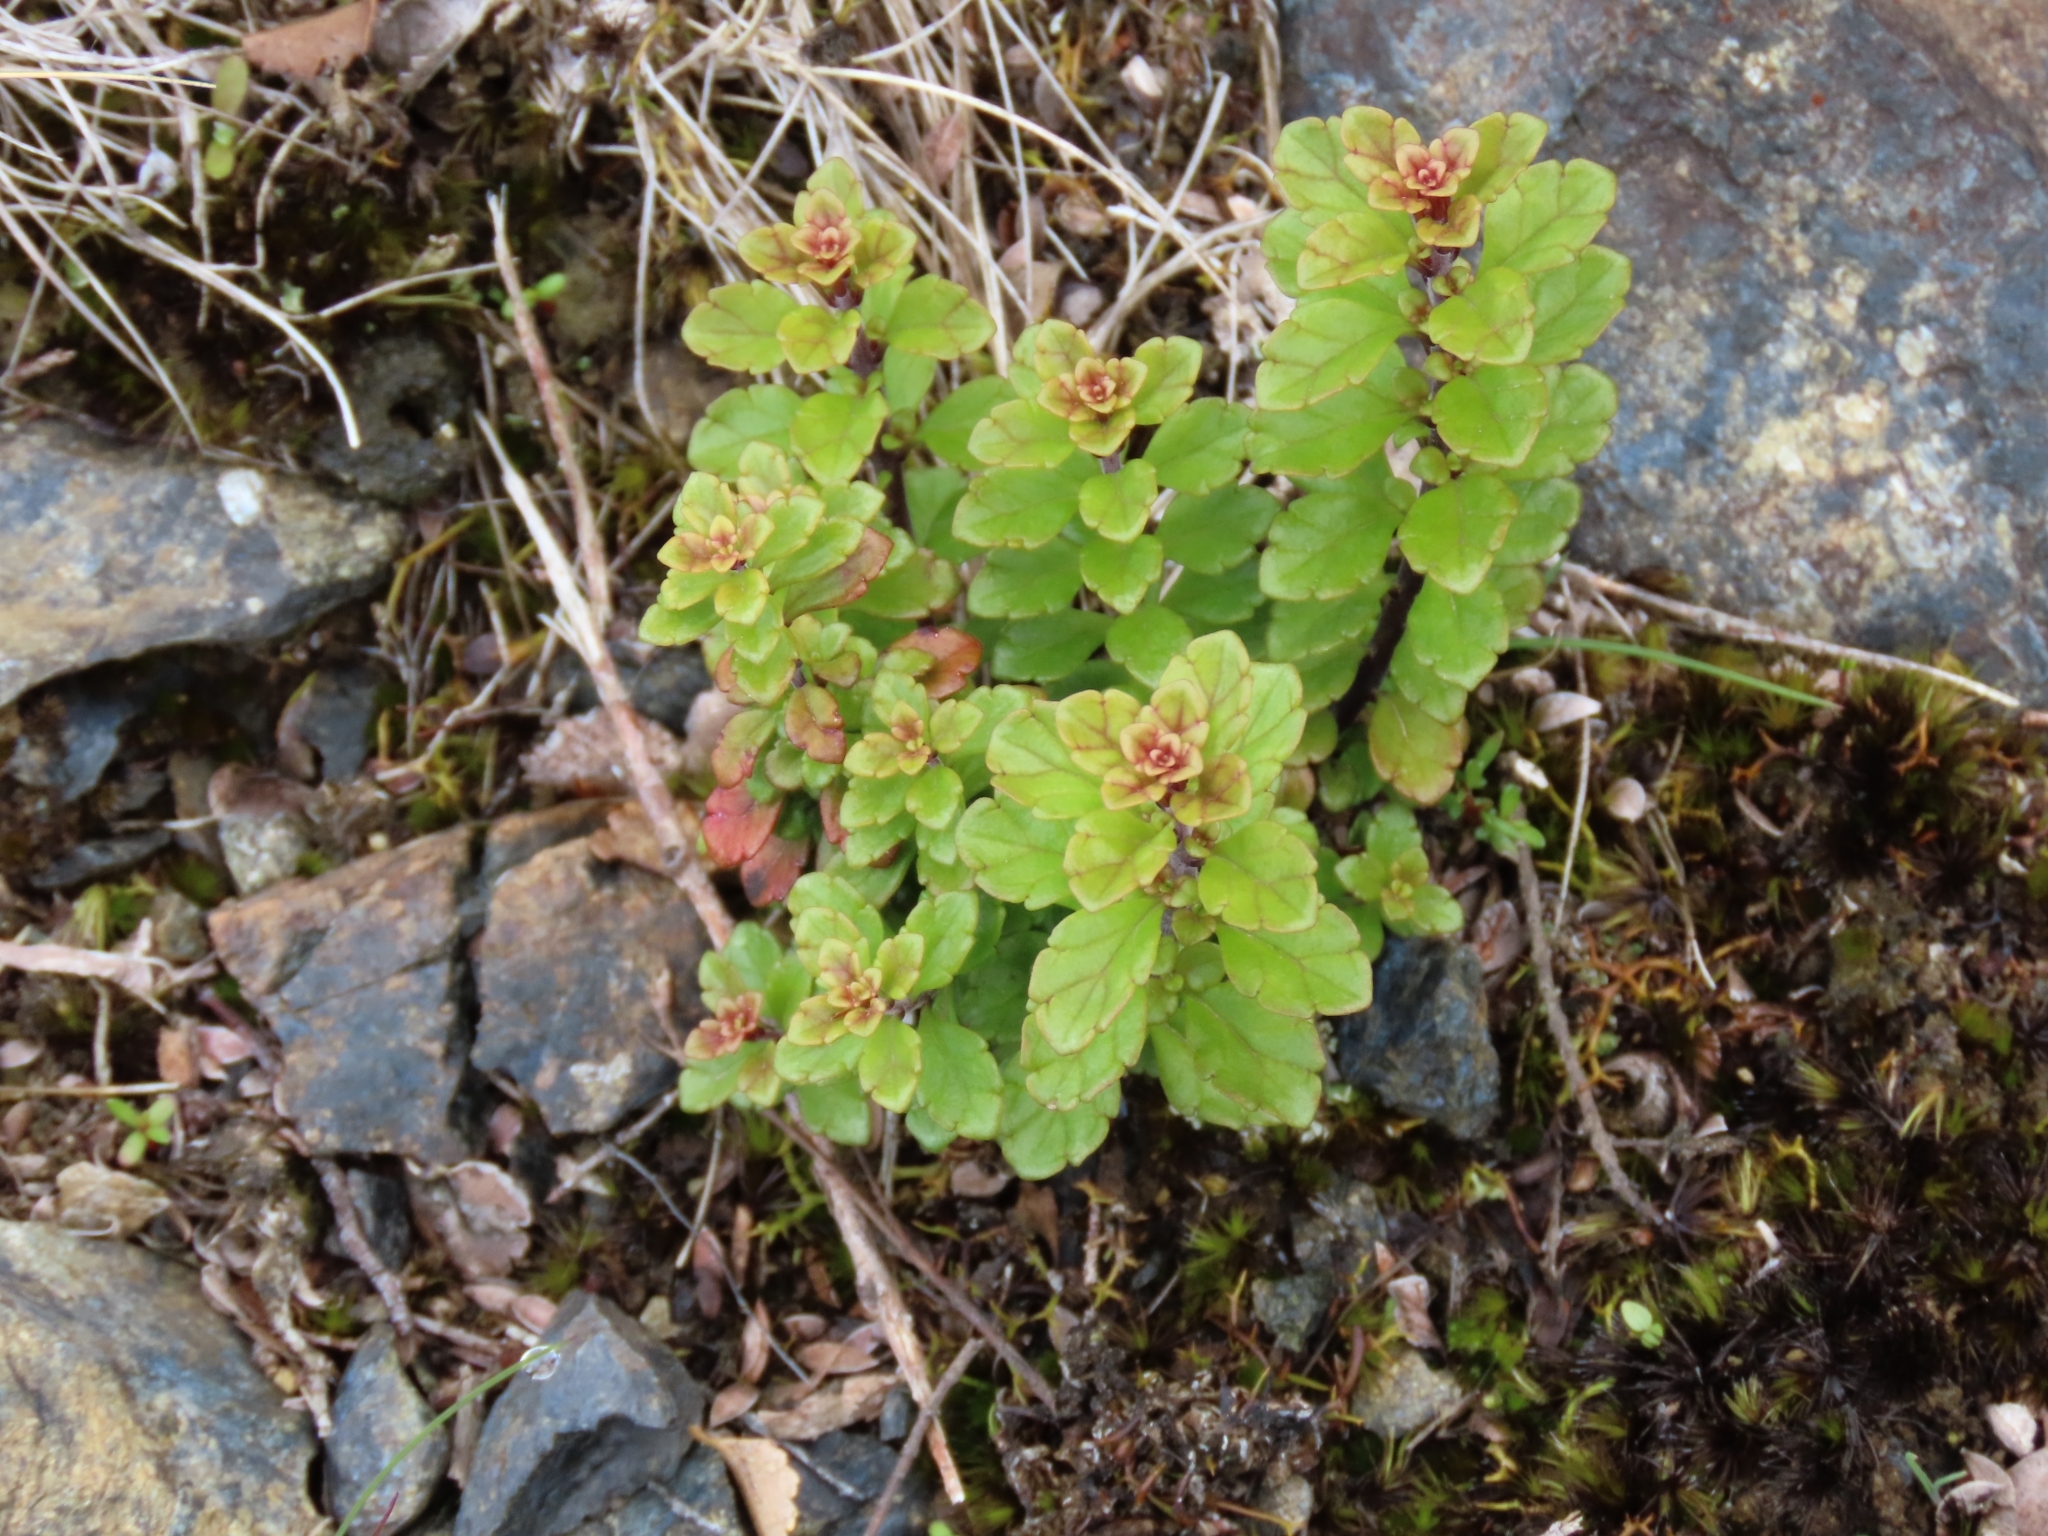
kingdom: Plantae
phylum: Tracheophyta
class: Magnoliopsida
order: Lamiales
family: Orobanchaceae
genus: Euphrasia
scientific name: Euphrasia cuneata
